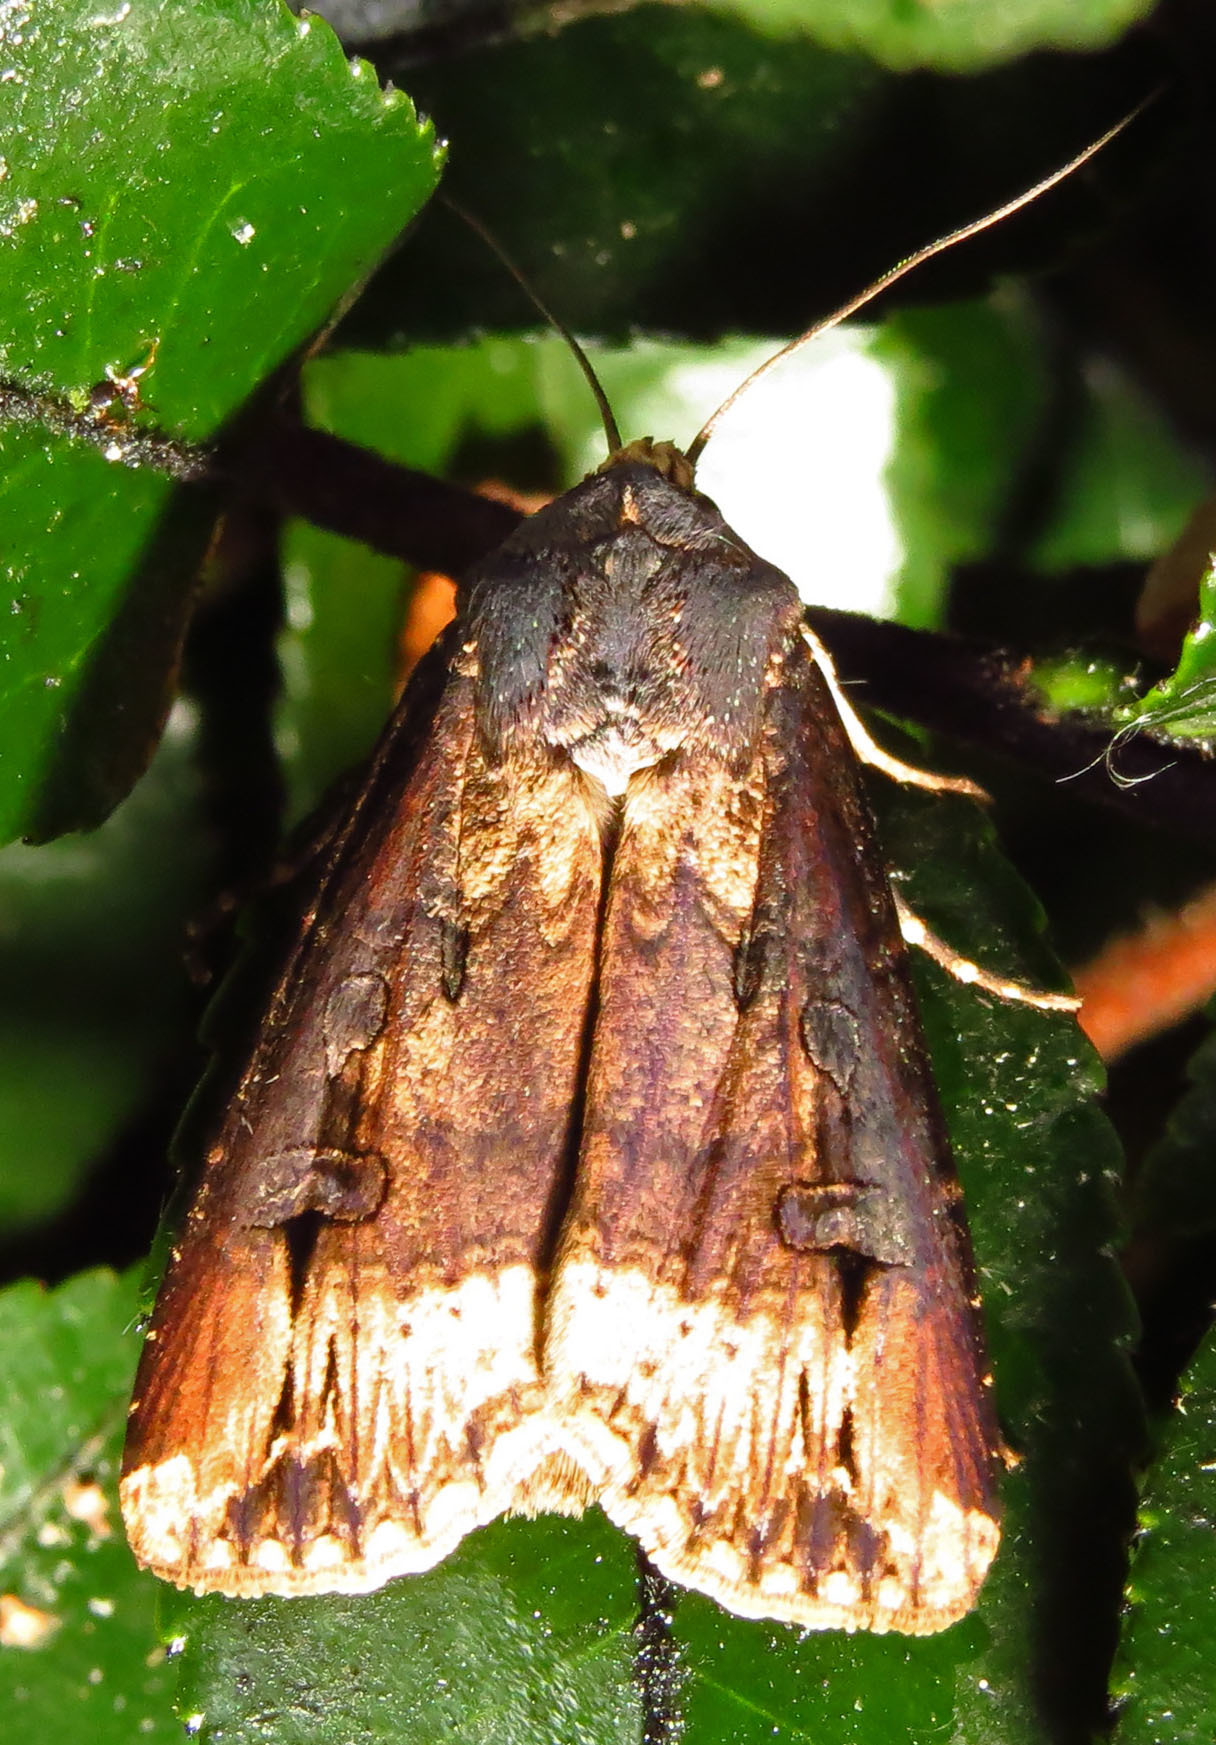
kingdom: Animalia
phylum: Arthropoda
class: Insecta
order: Lepidoptera
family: Noctuidae
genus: Agrotis
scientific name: Agrotis ipsilon
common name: Dark sword-grass
